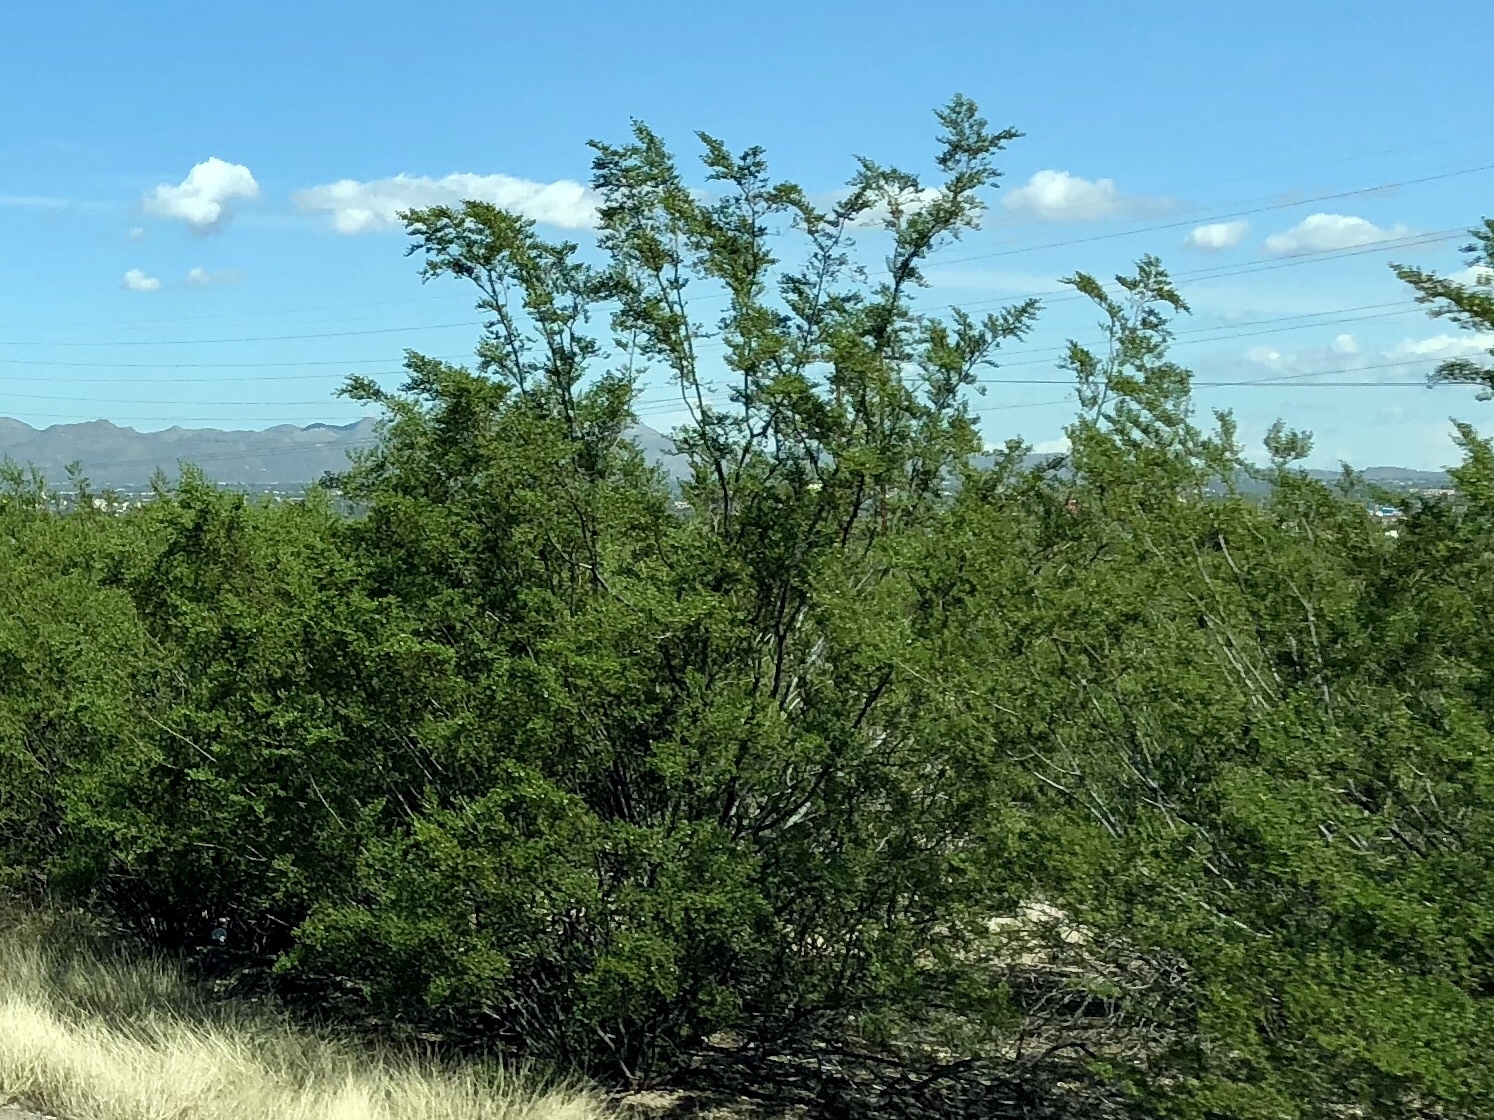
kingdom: Plantae
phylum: Tracheophyta
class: Magnoliopsida
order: Zygophyllales
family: Zygophyllaceae
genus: Larrea
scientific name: Larrea tridentata
